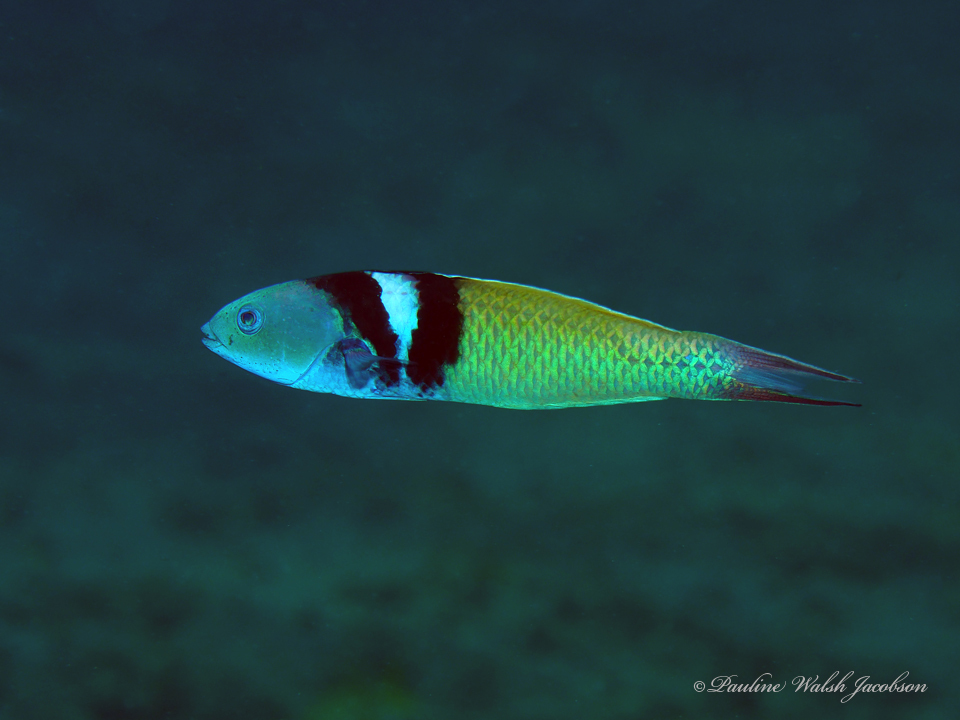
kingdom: Animalia
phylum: Chordata
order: Perciformes
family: Labridae
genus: Thalassoma
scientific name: Thalassoma bifasciatum
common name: Bluehead wrasse
